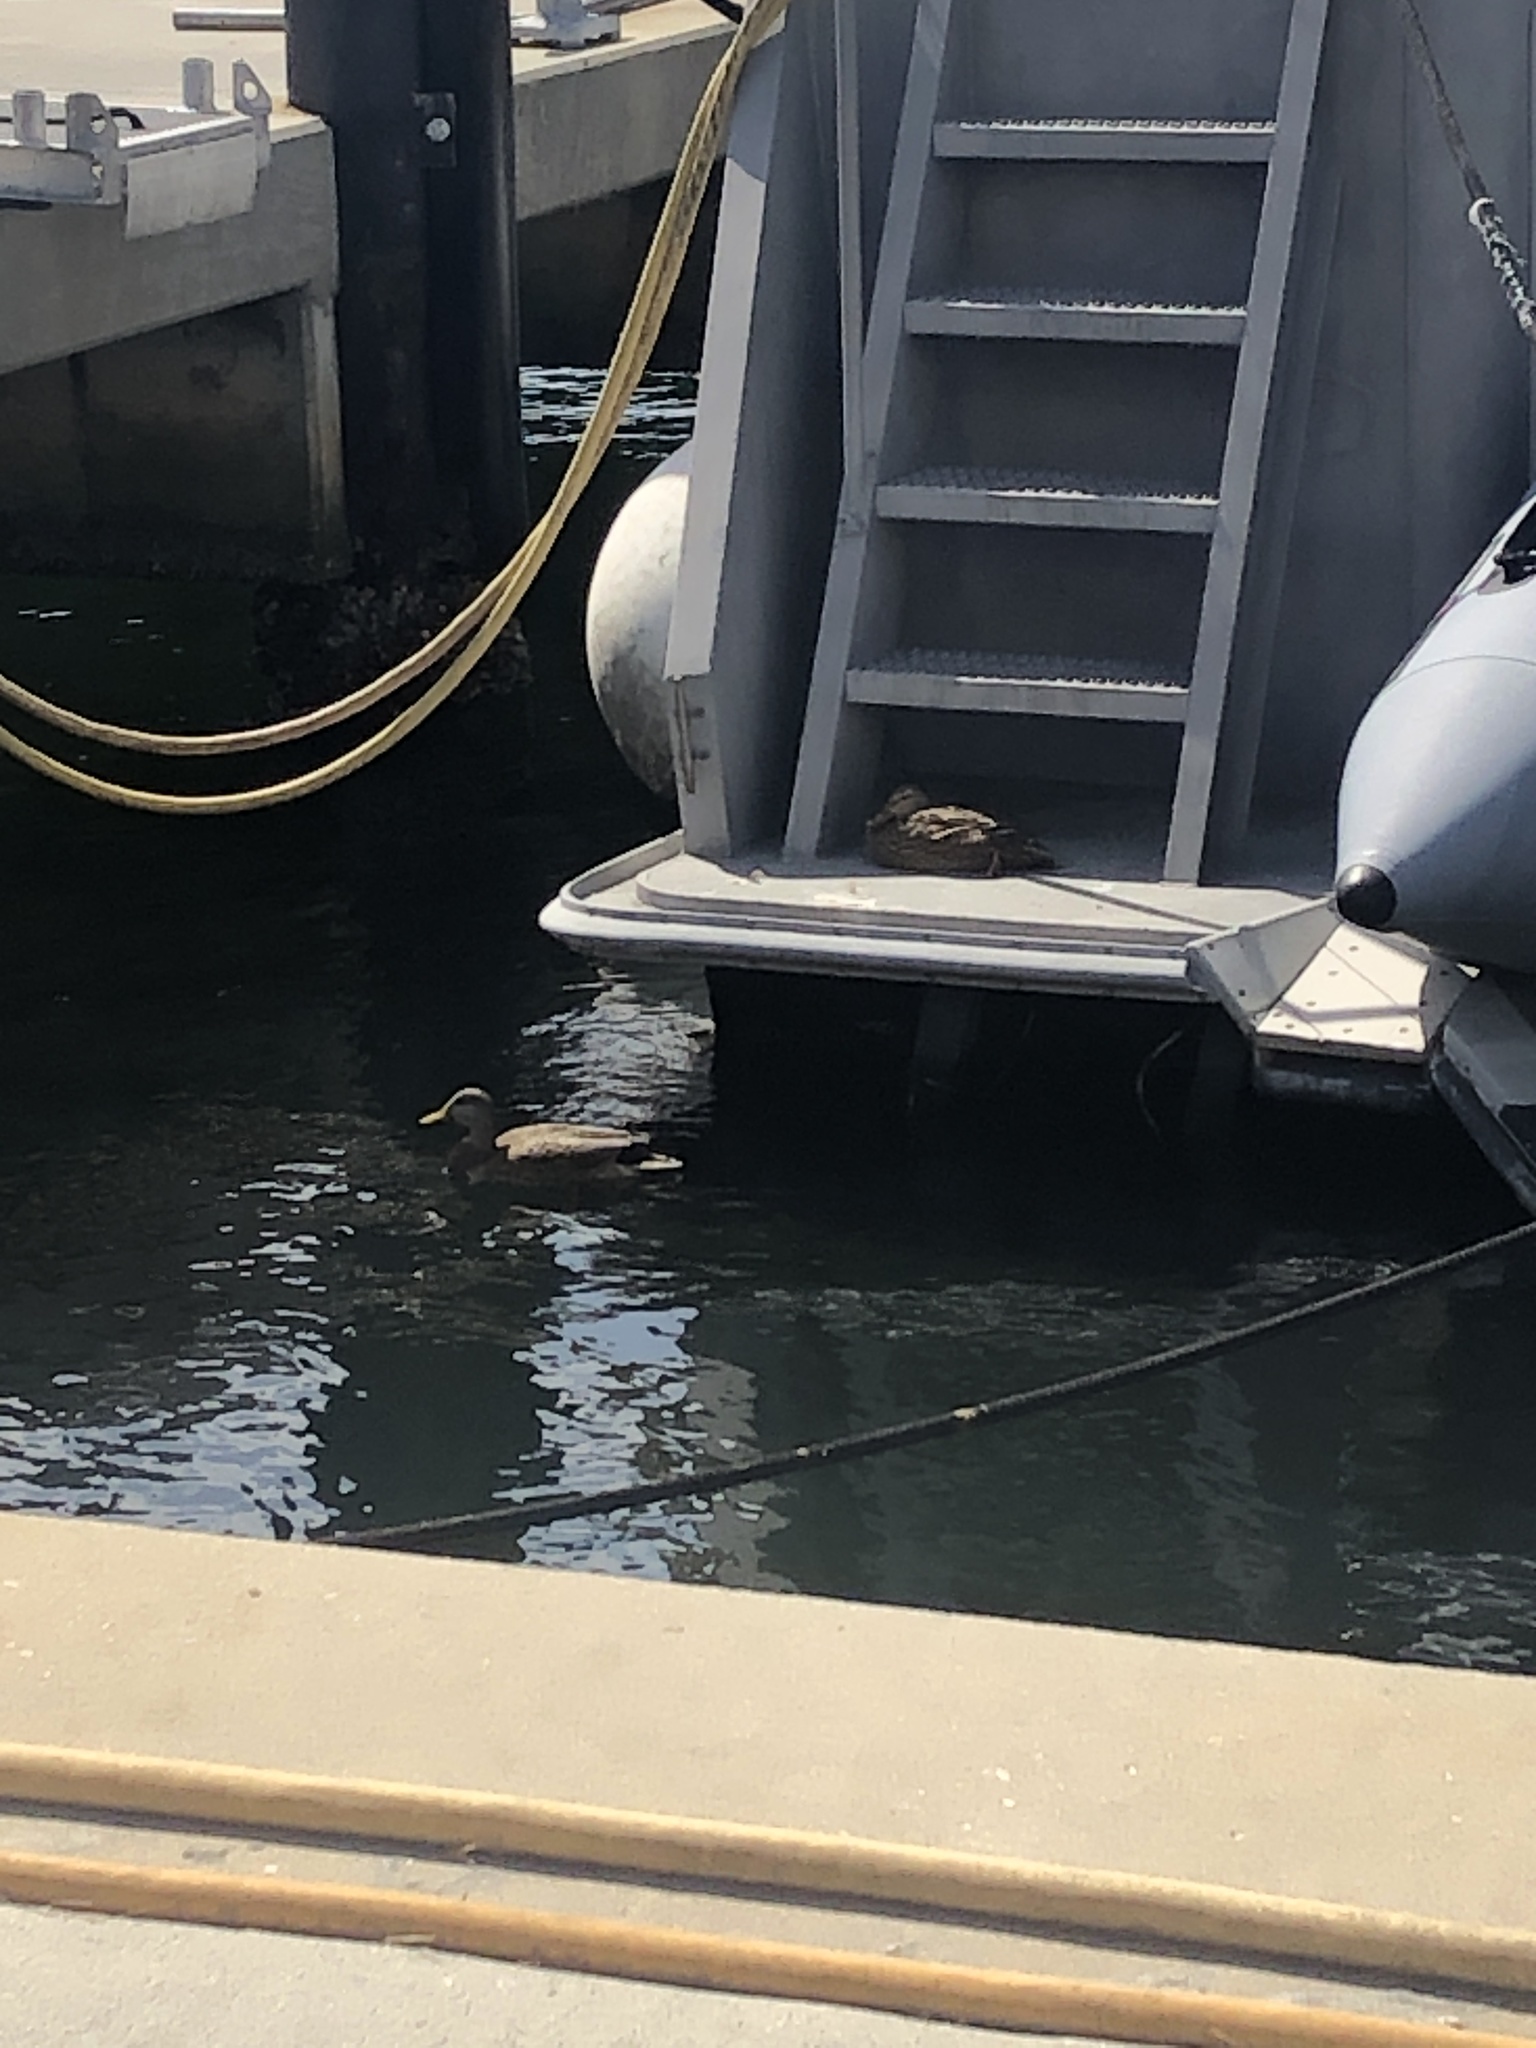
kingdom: Animalia
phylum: Chordata
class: Aves
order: Anseriformes
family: Anatidae
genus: Anas
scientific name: Anas
